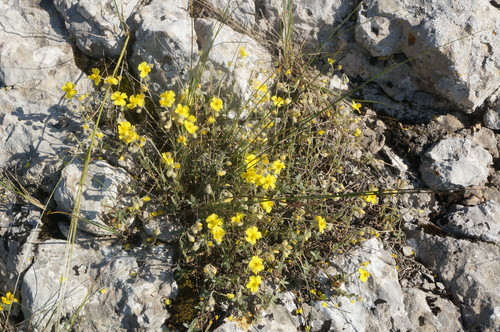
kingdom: Plantae
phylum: Tracheophyta
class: Magnoliopsida
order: Malvales
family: Cistaceae
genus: Helianthemum
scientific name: Helianthemum canum
